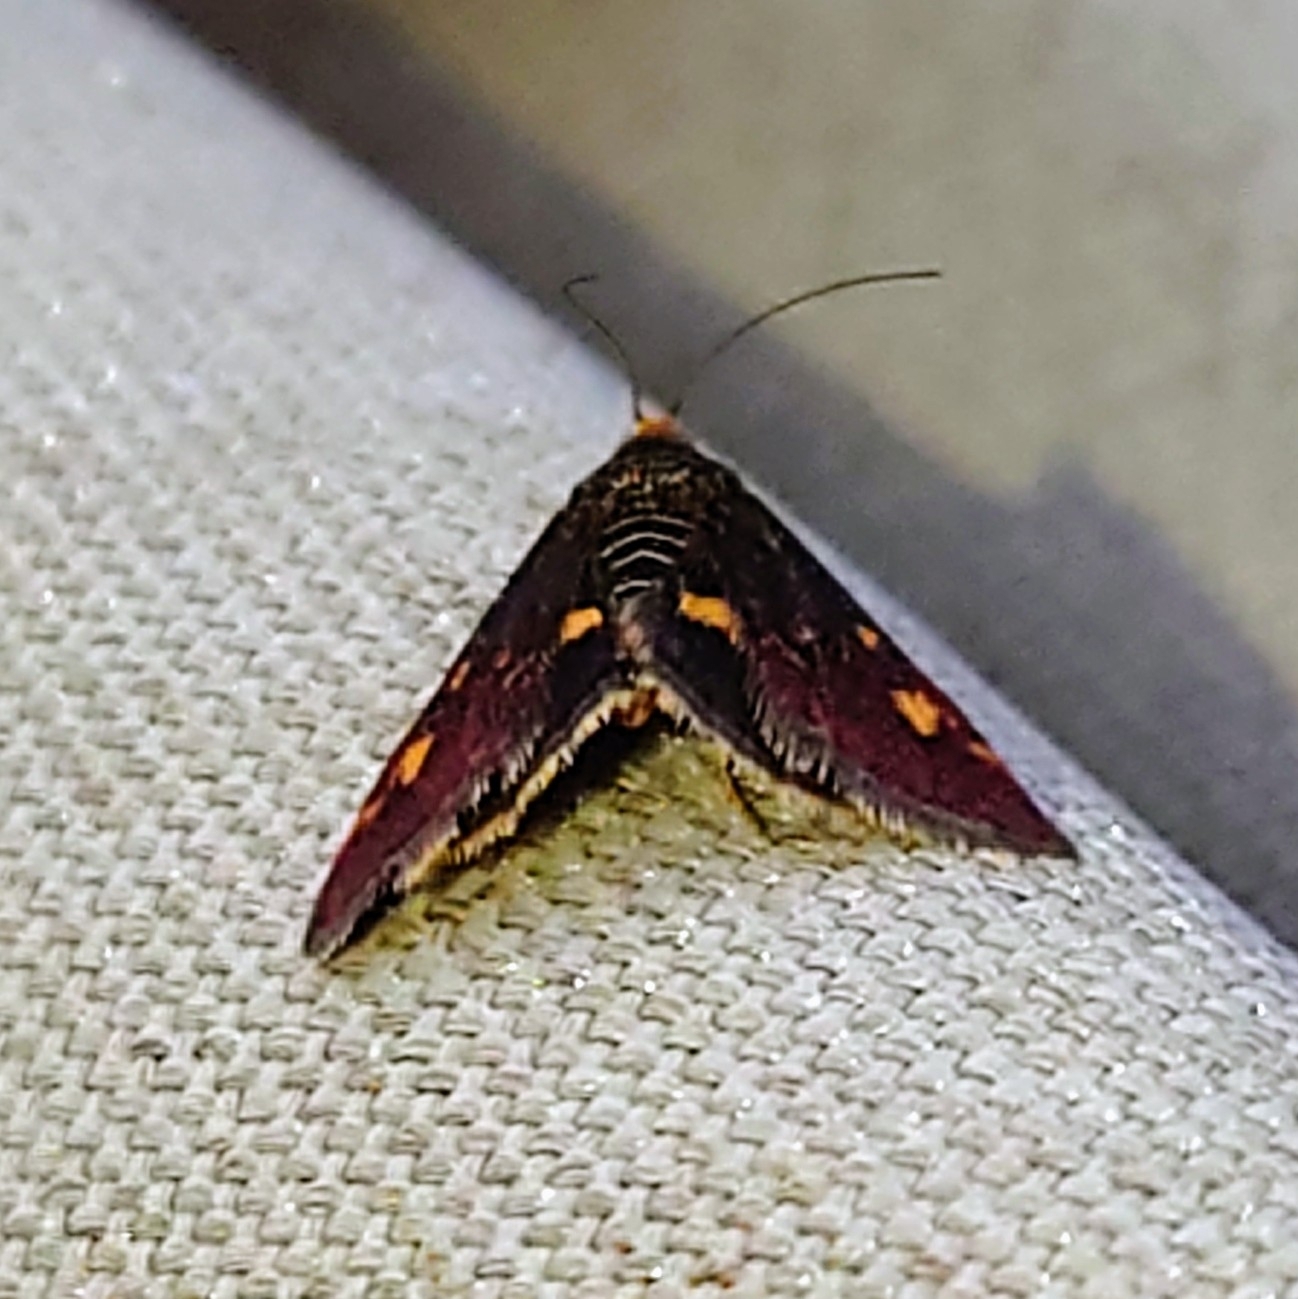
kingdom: Animalia
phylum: Arthropoda
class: Insecta
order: Lepidoptera
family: Crambidae
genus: Pyrausta
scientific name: Pyrausta aurata
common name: Small purple & gold
